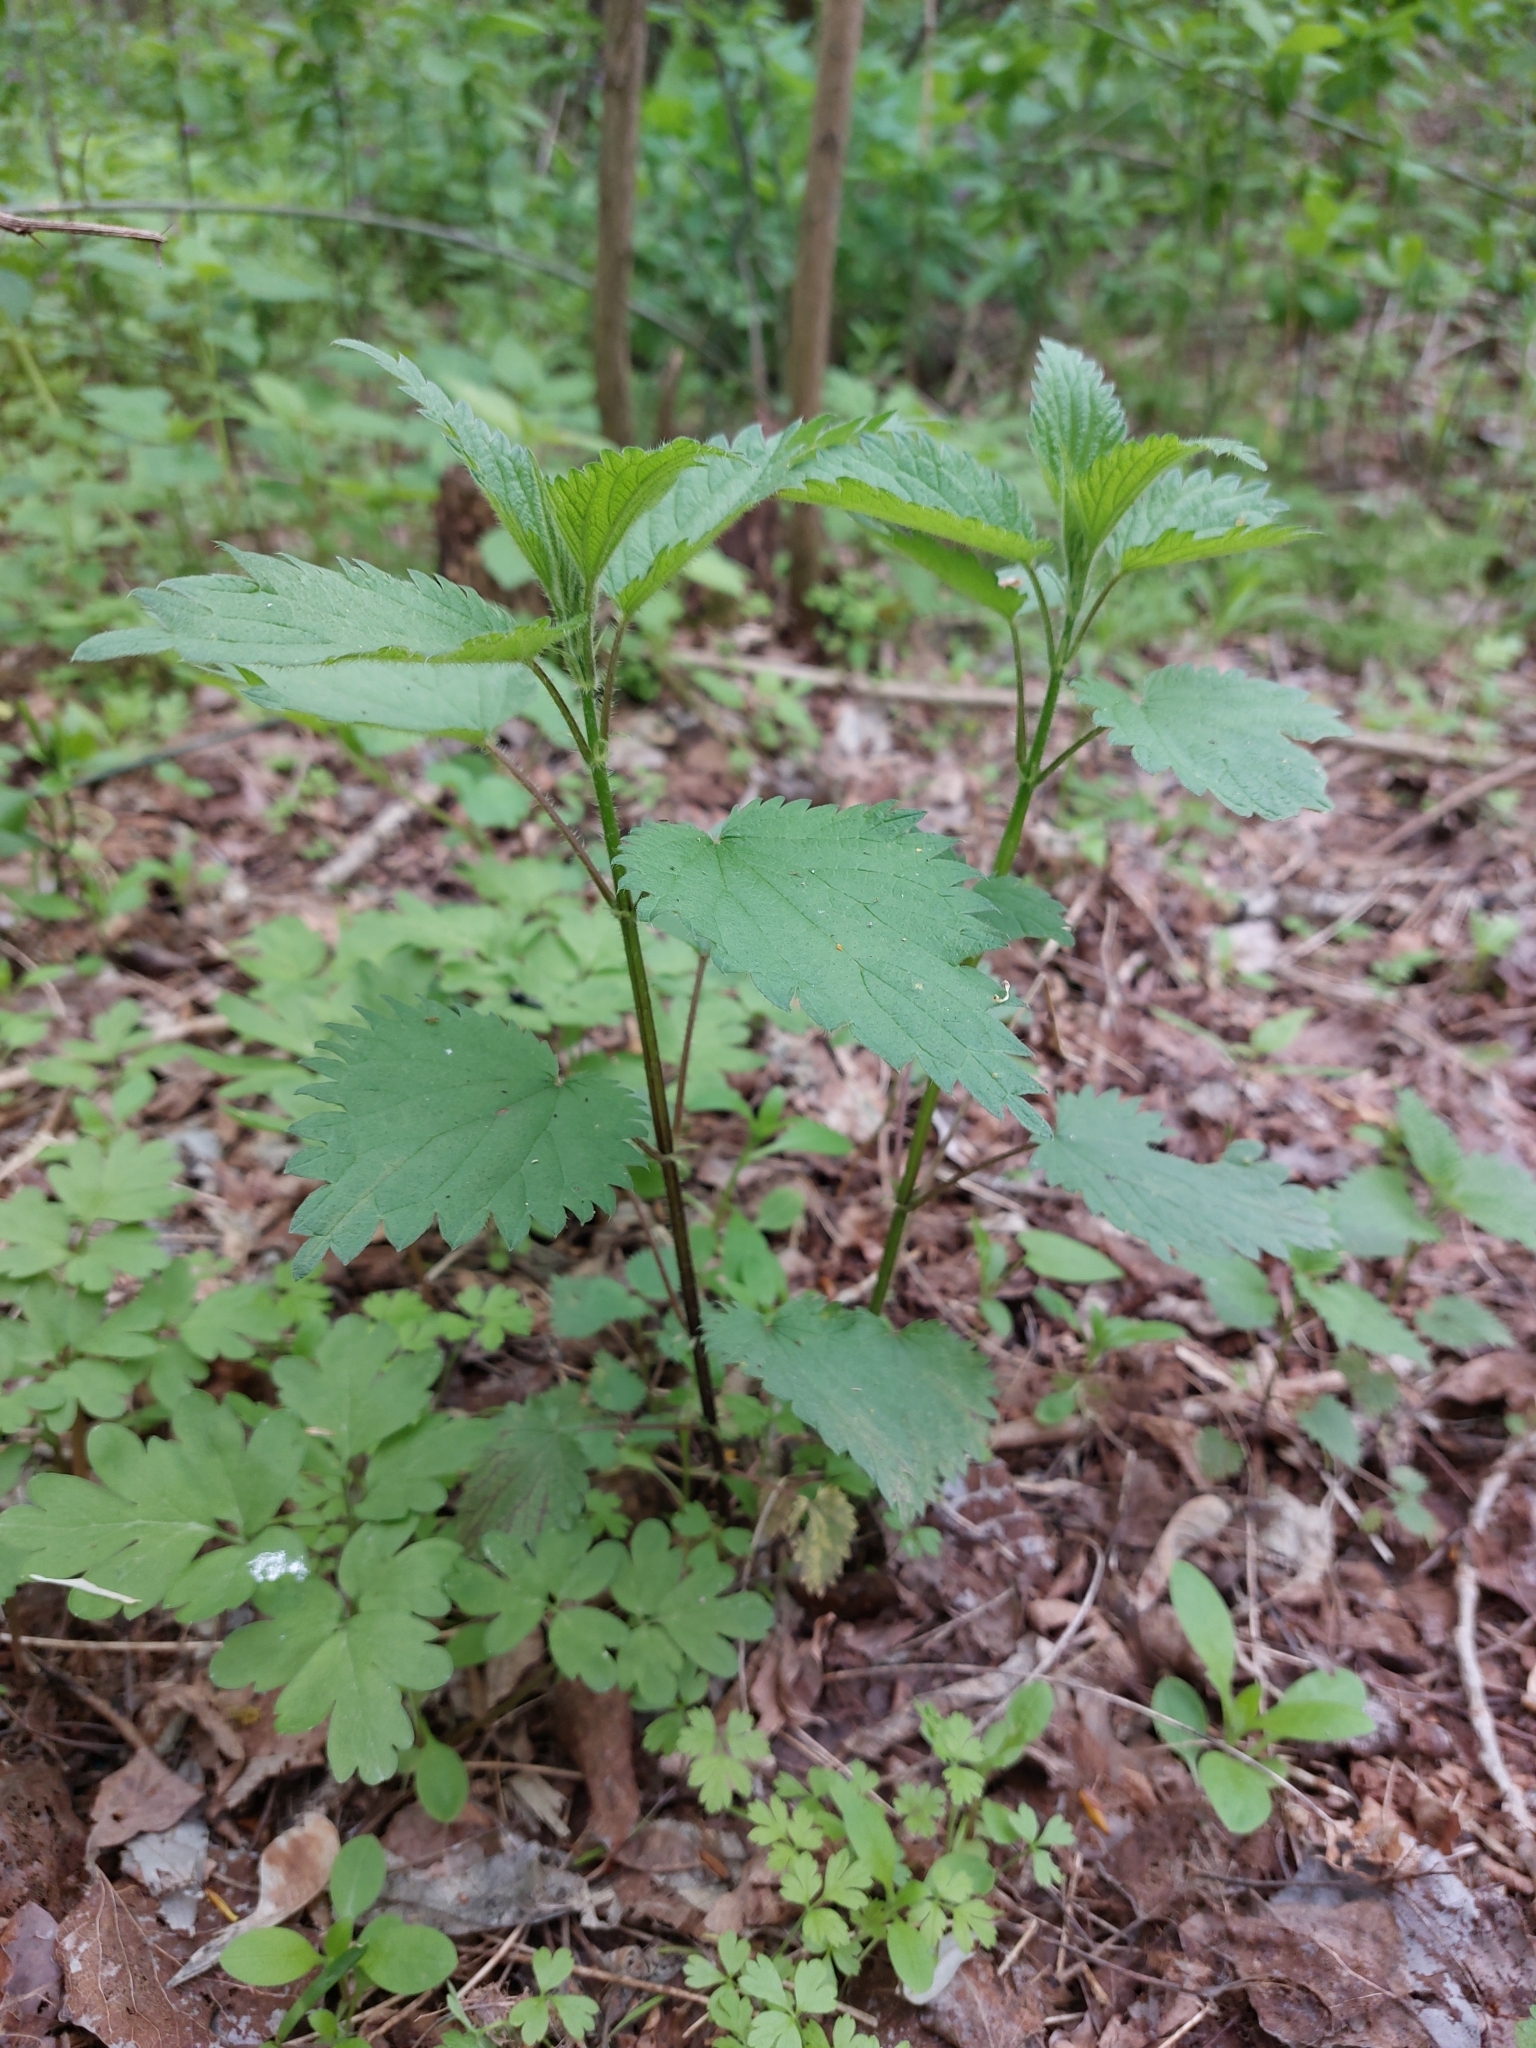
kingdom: Plantae
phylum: Tracheophyta
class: Magnoliopsida
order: Rosales
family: Urticaceae
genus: Urtica
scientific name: Urtica dioica
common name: Common nettle
